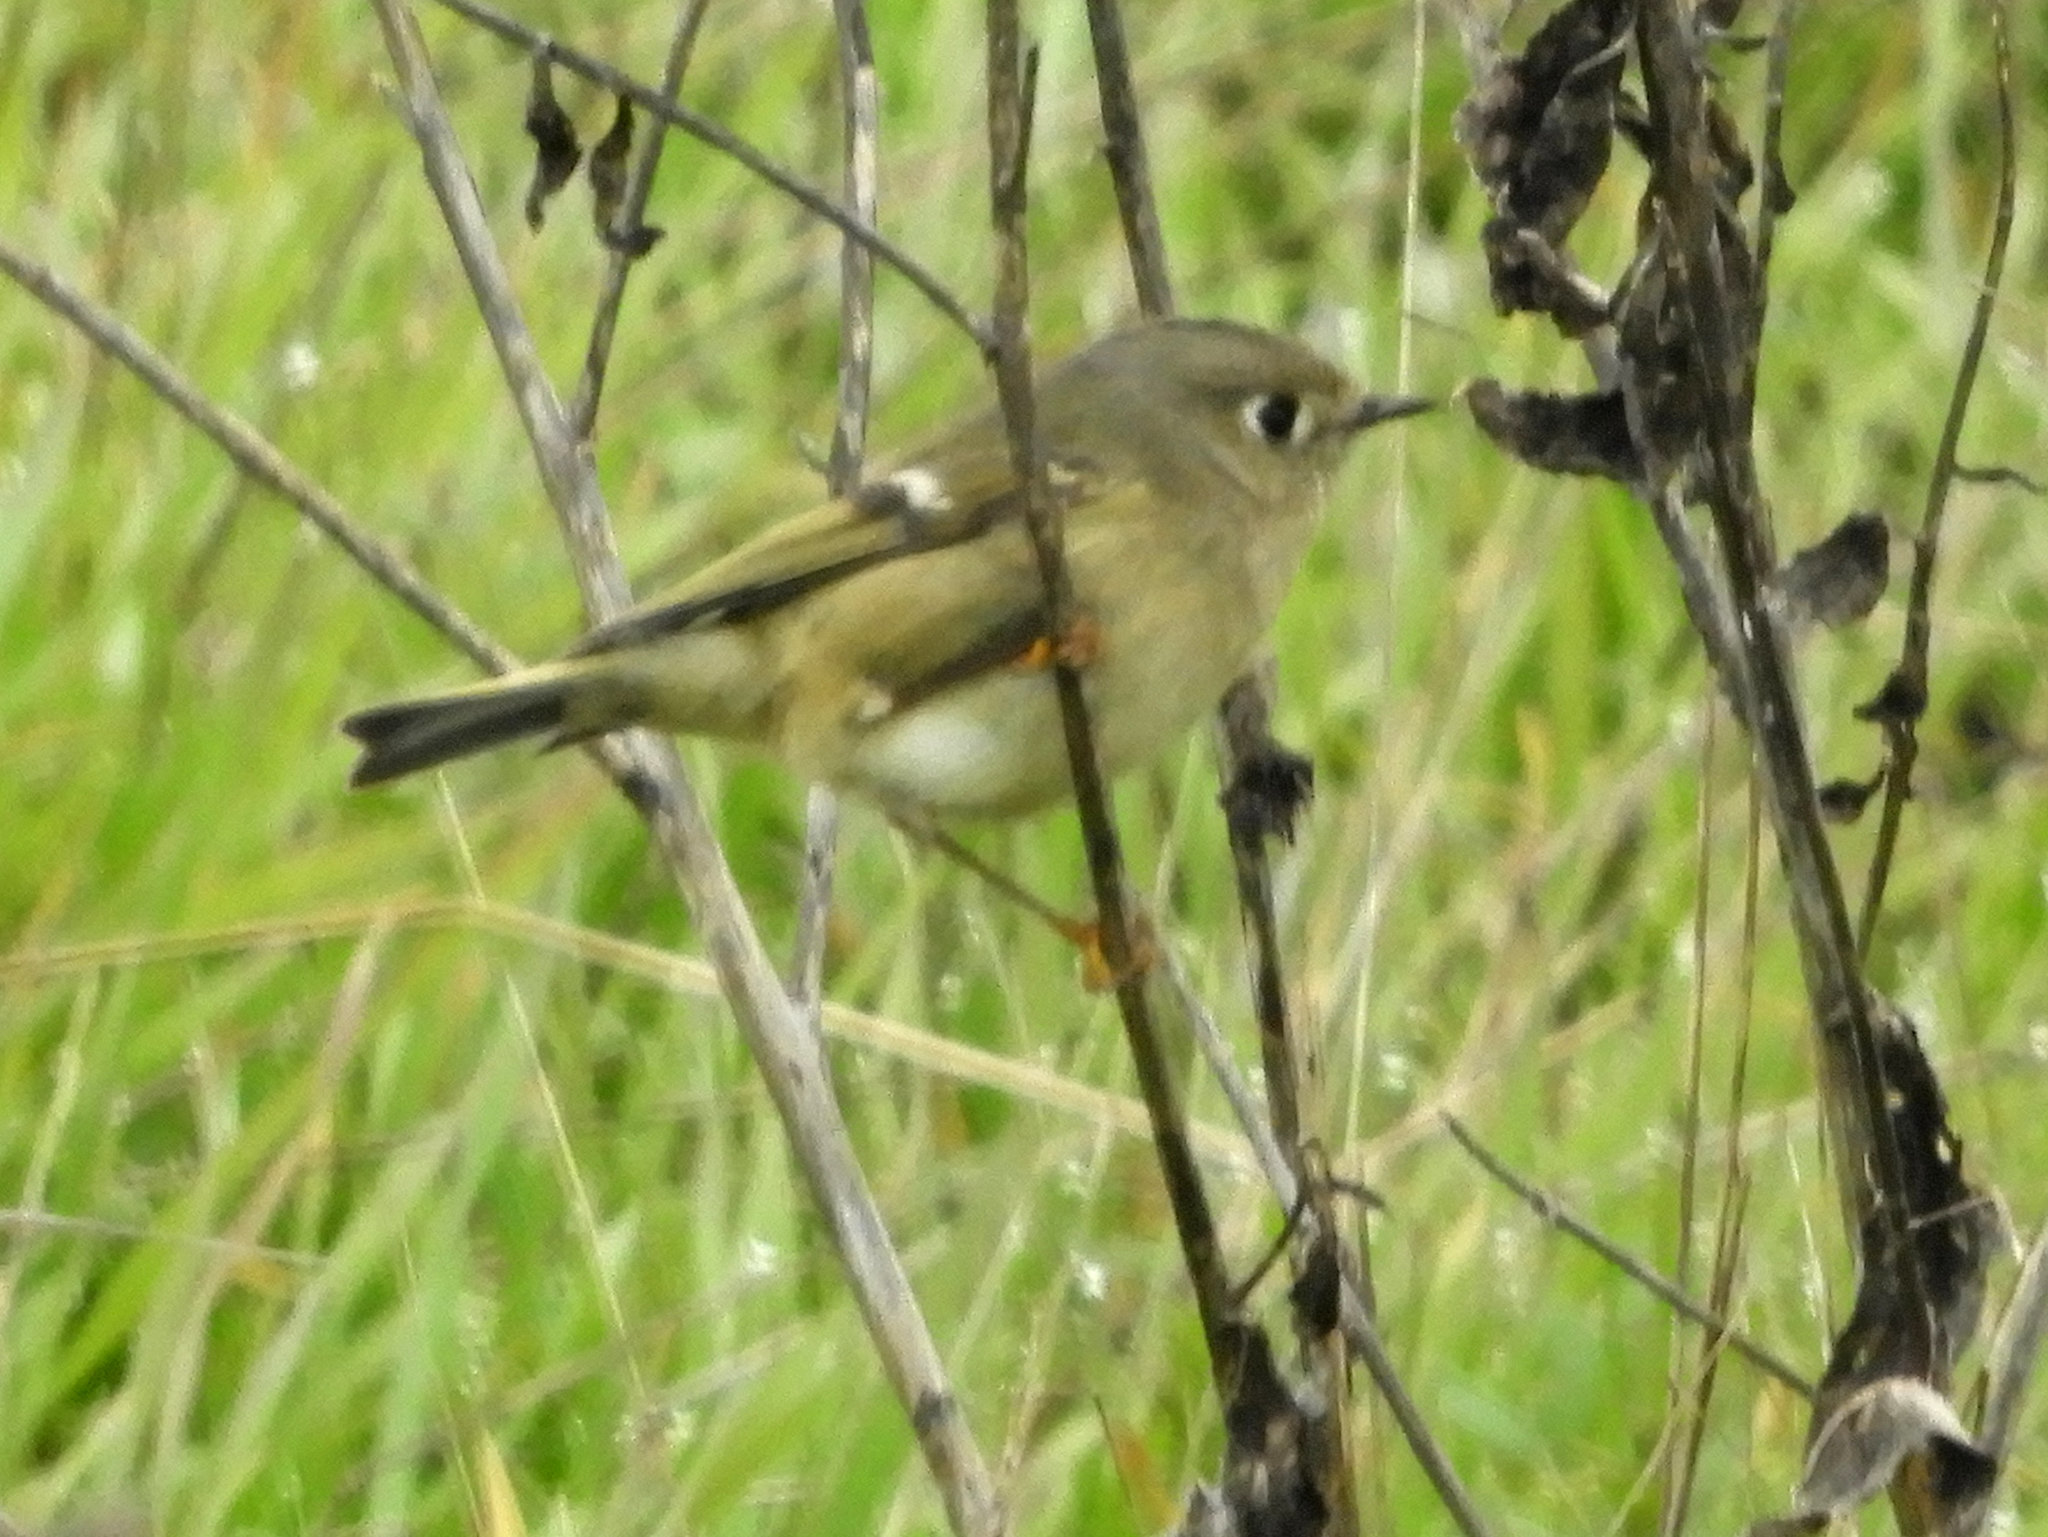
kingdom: Animalia
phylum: Chordata
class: Aves
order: Passeriformes
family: Regulidae
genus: Regulus
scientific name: Regulus calendula
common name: Ruby-crowned kinglet
